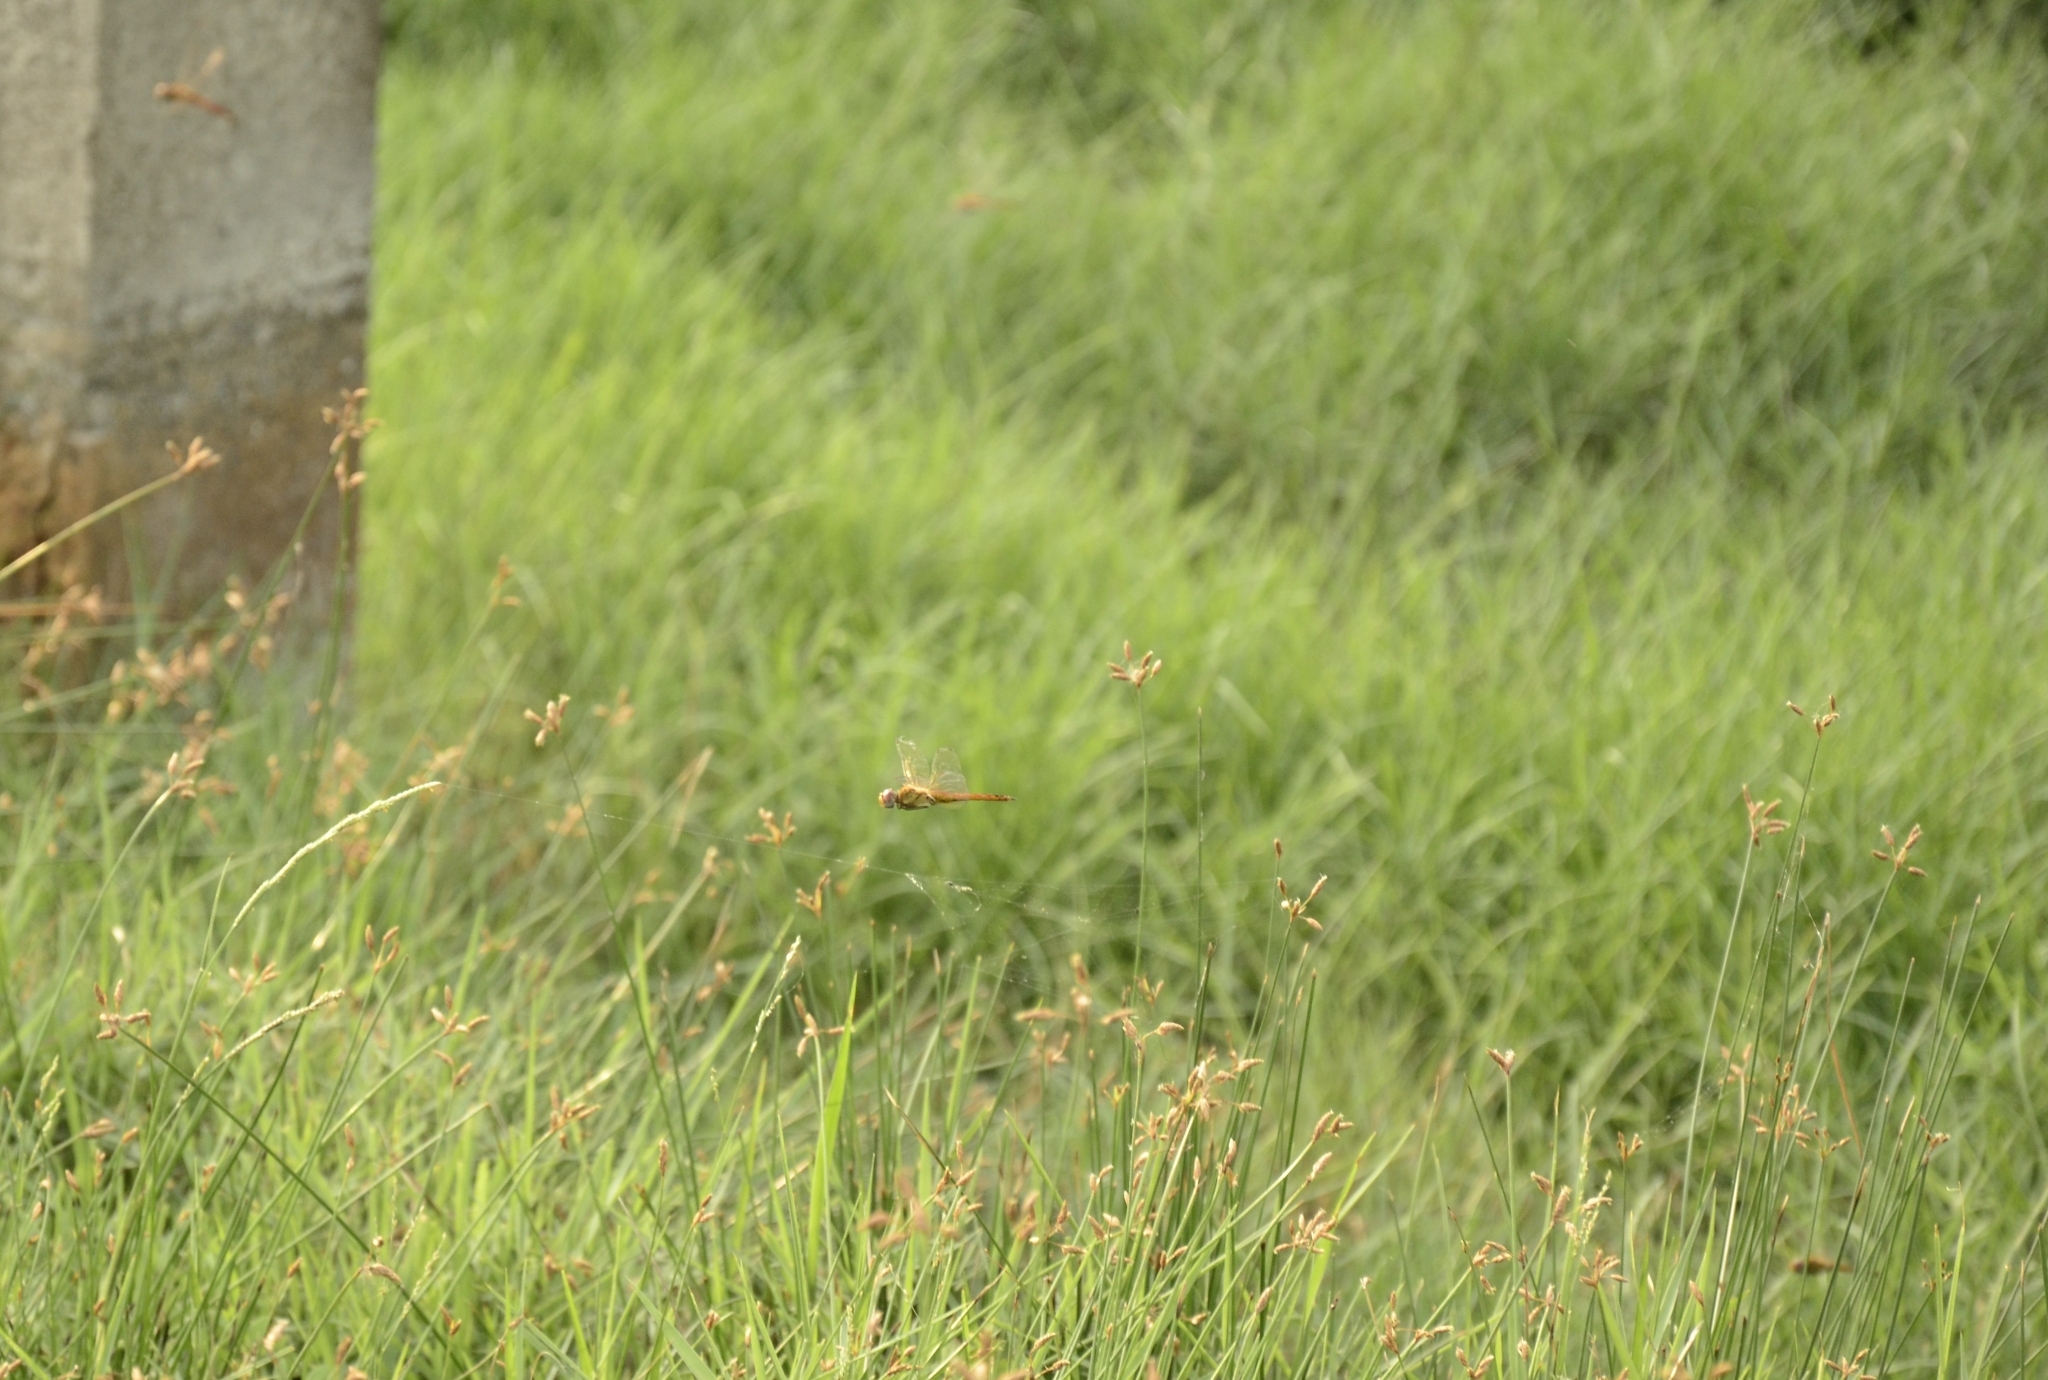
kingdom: Animalia
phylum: Arthropoda
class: Insecta
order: Odonata
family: Libellulidae
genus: Pantala
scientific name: Pantala flavescens
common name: Wandering glider
